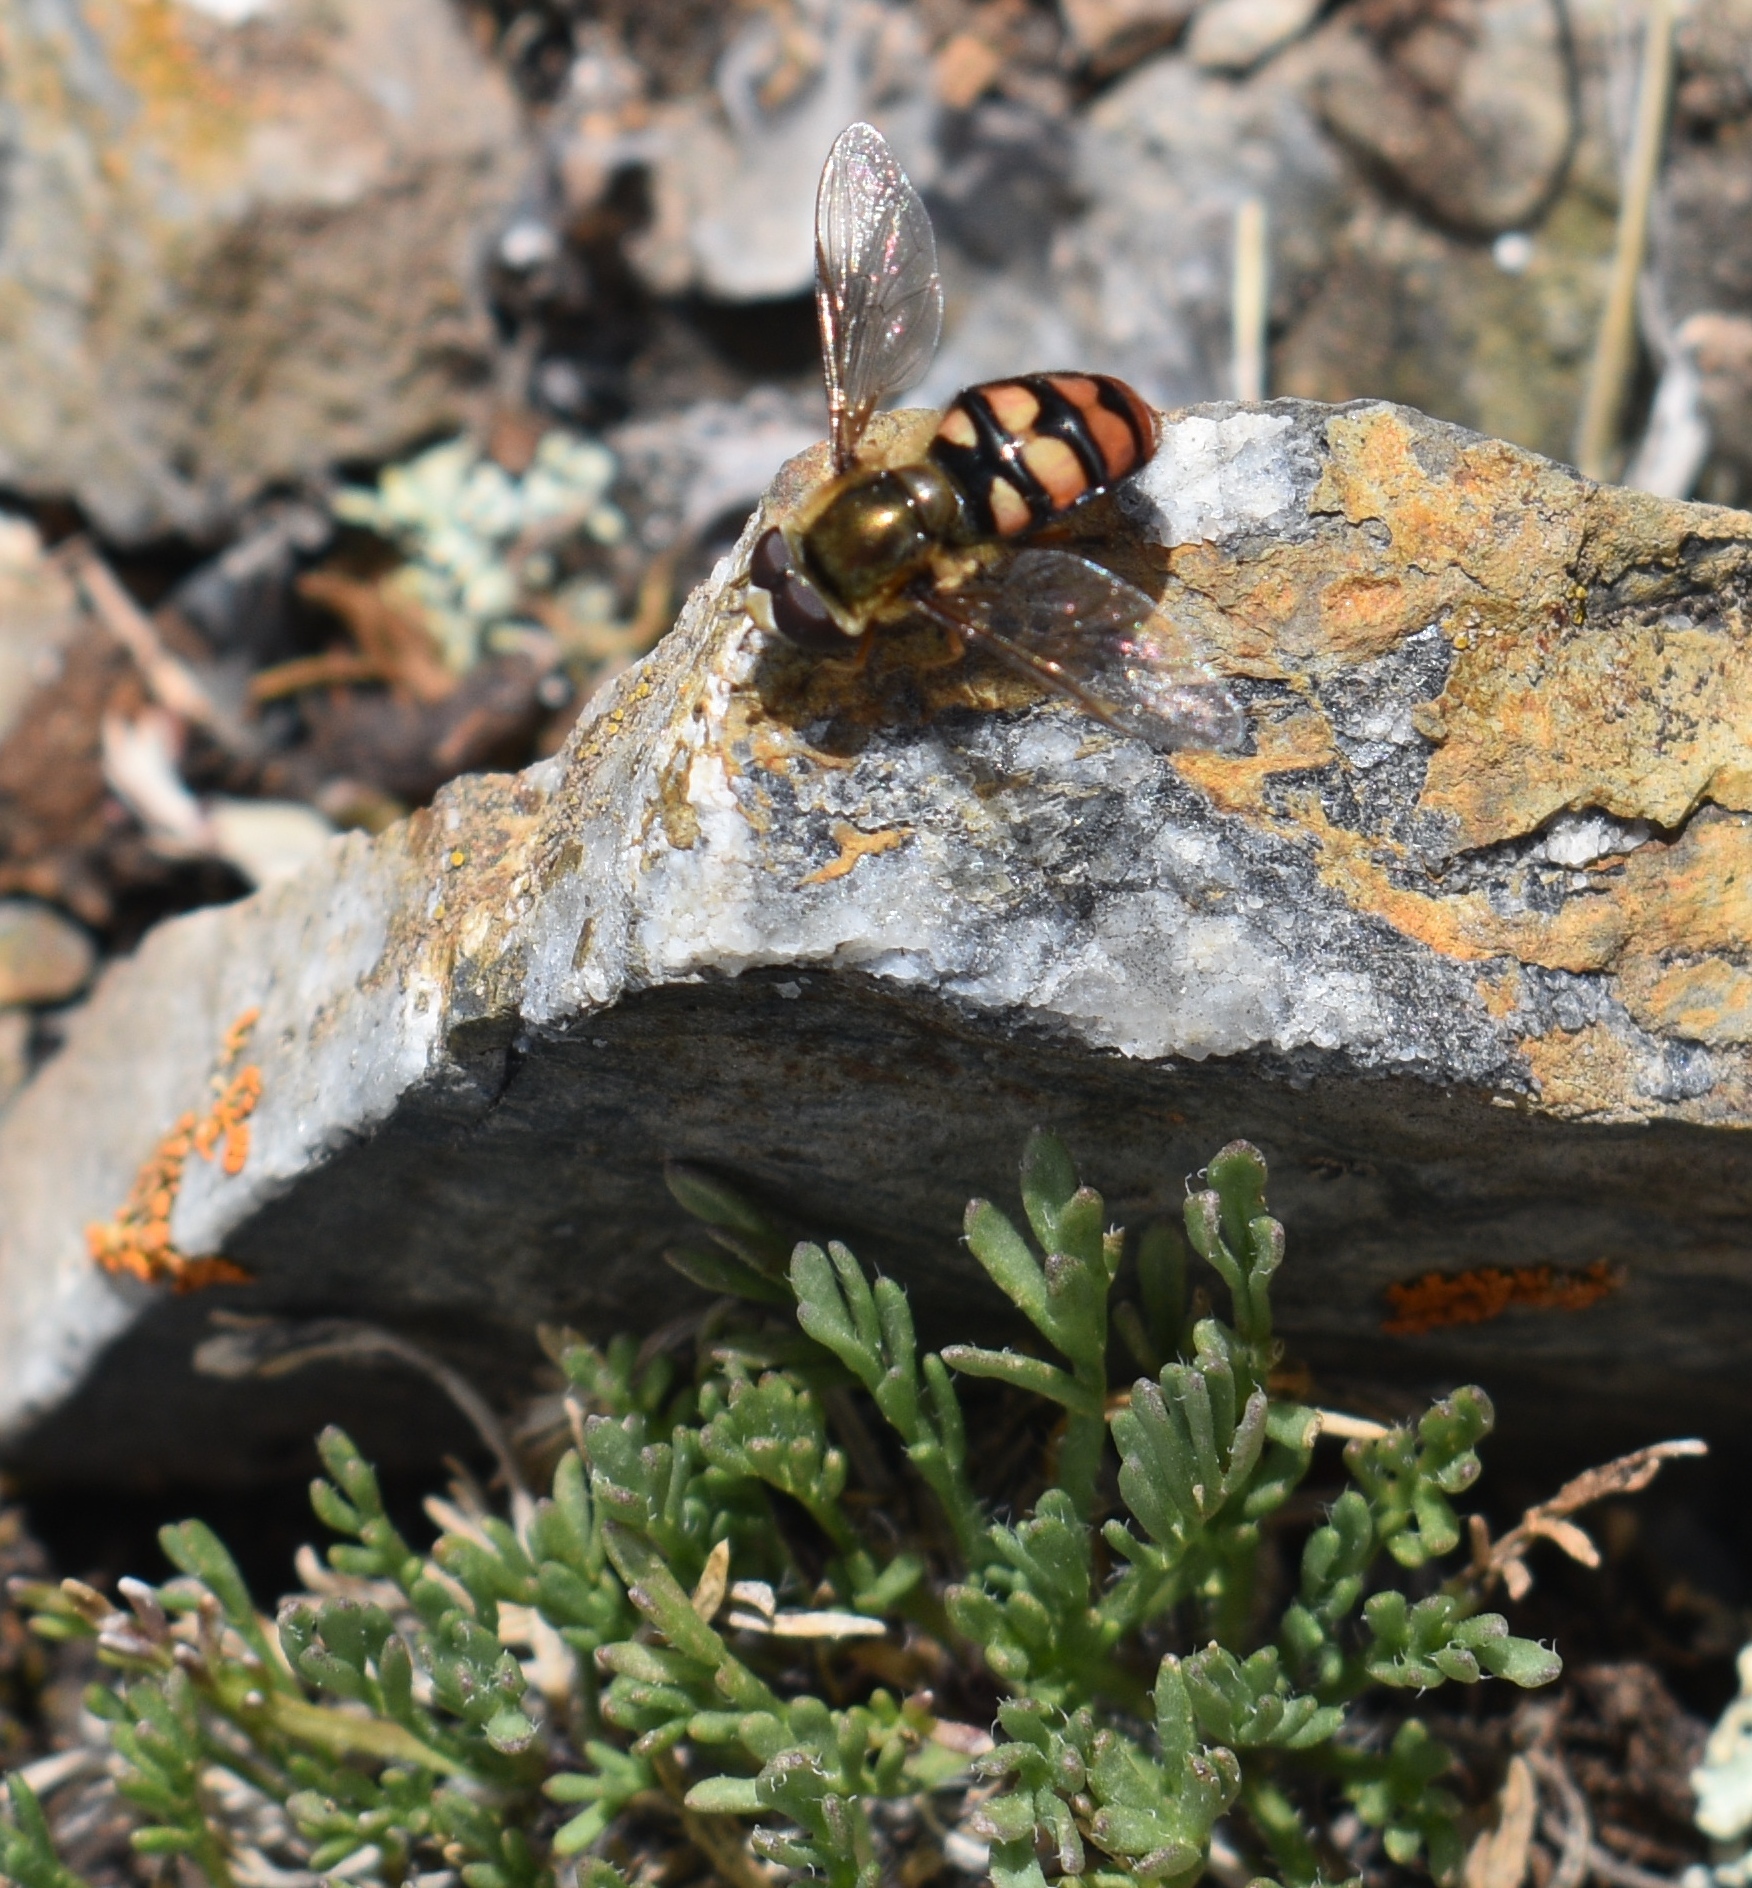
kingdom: Animalia
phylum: Arthropoda
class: Insecta
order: Diptera
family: Syrphidae
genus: Eupeodes
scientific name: Eupeodes montivagus
